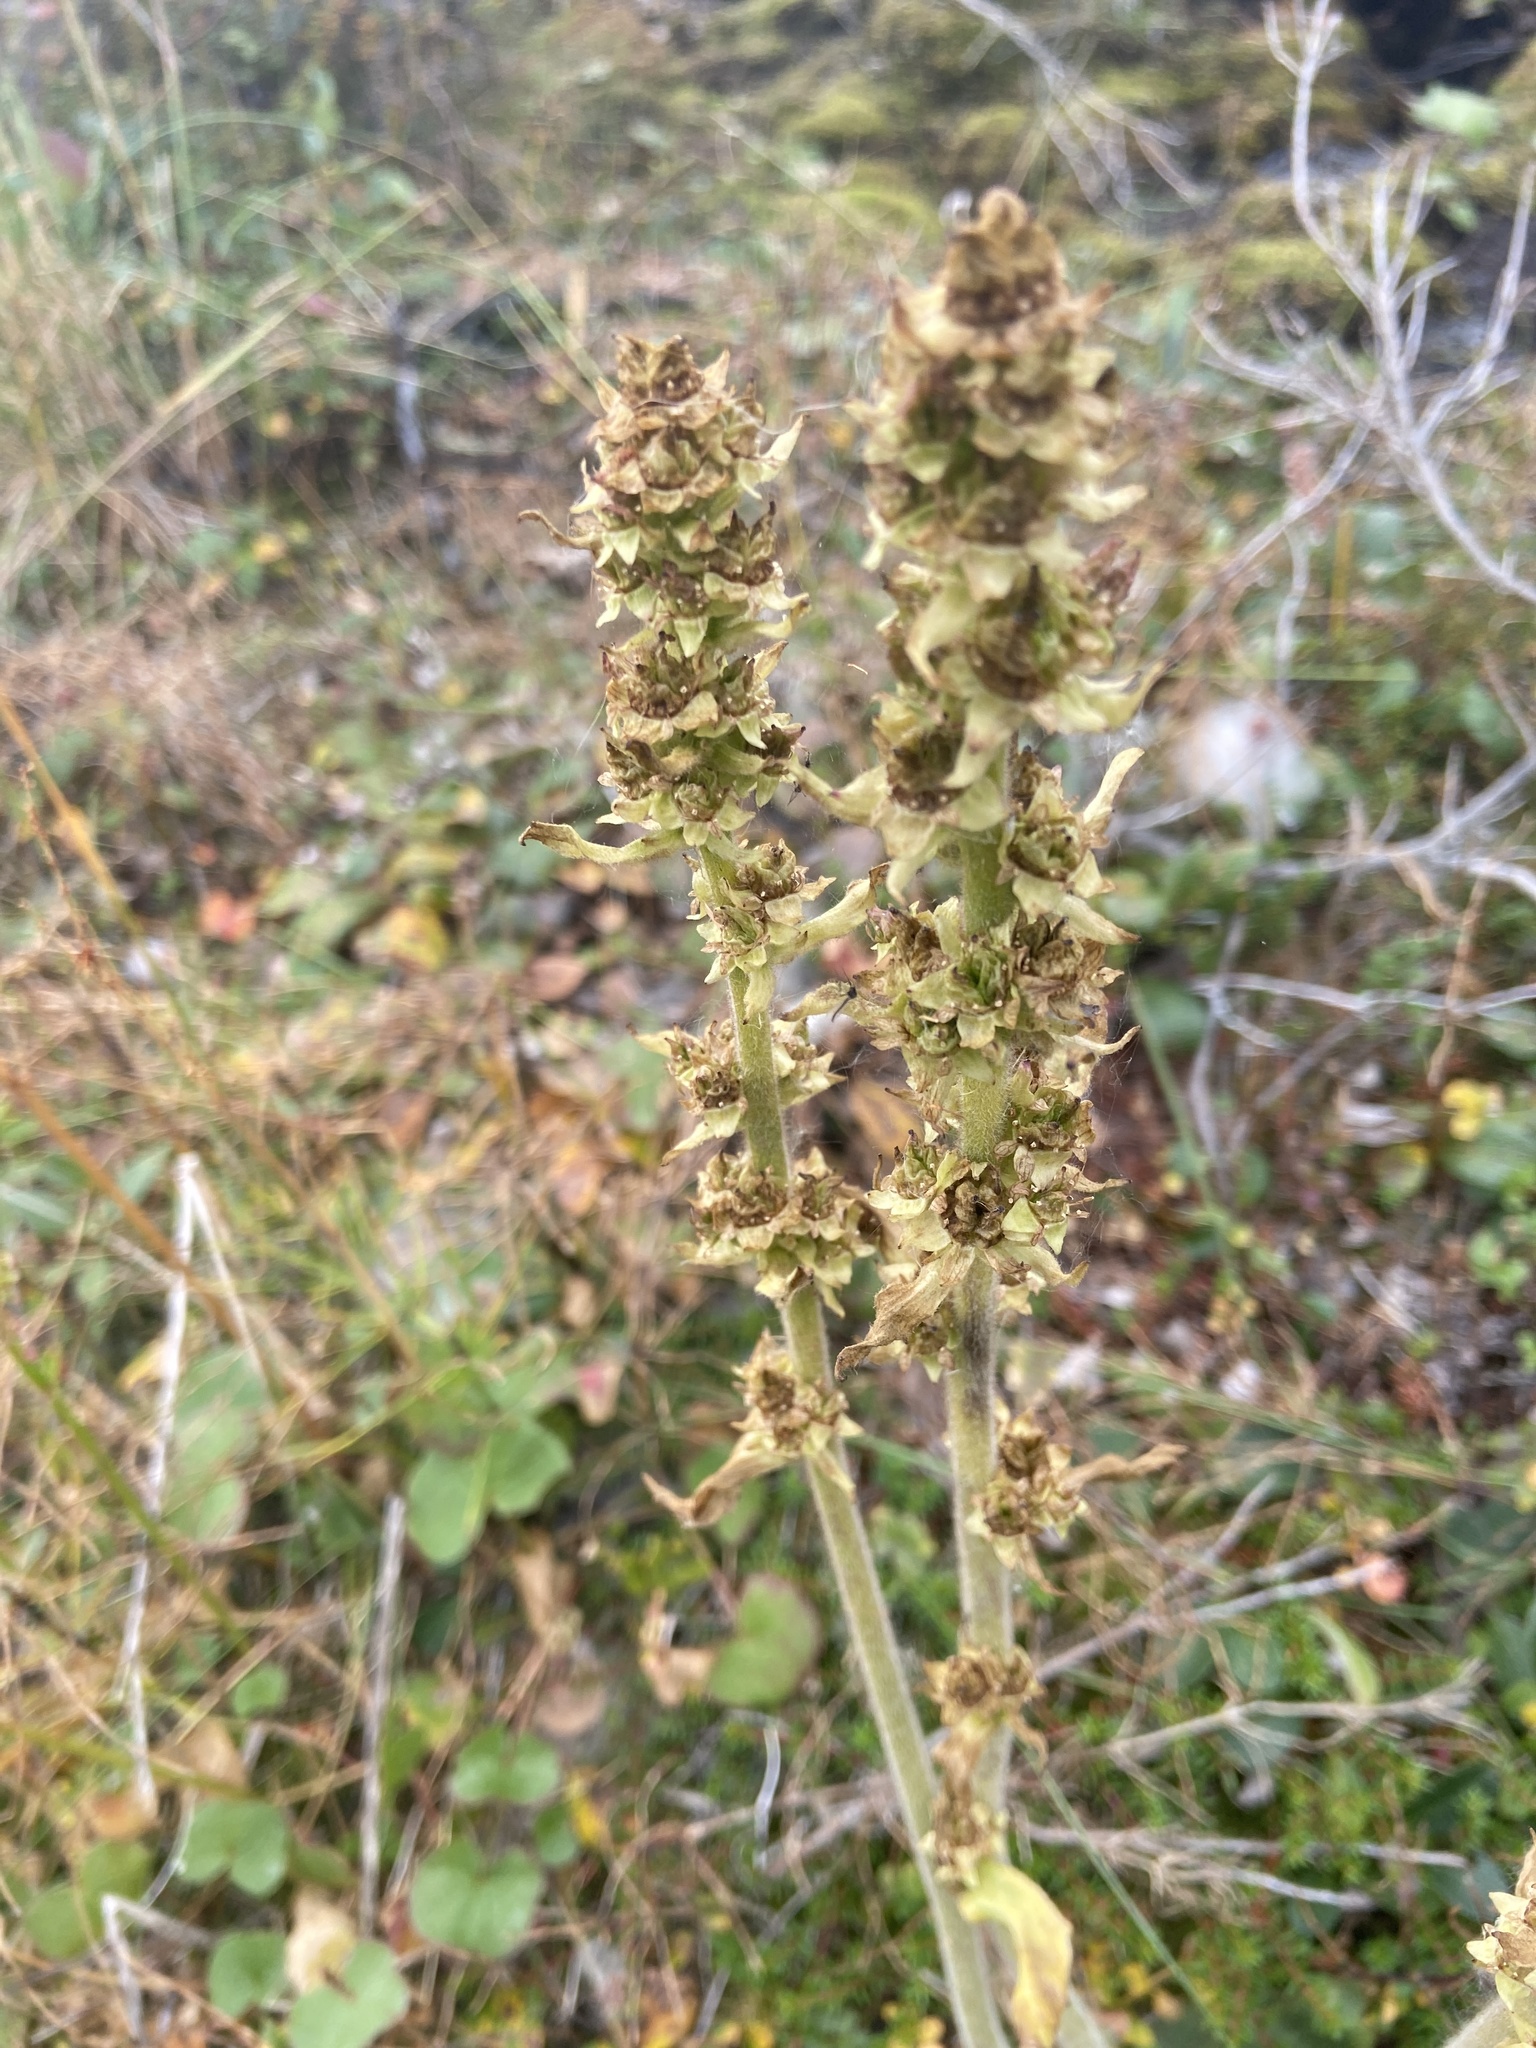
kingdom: Plantae
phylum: Tracheophyta
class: Magnoliopsida
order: Saxifragales
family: Saxifragaceae
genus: Micranthes
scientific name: Micranthes hieraciifolia
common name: Hawkweed-leaved saxifrage
